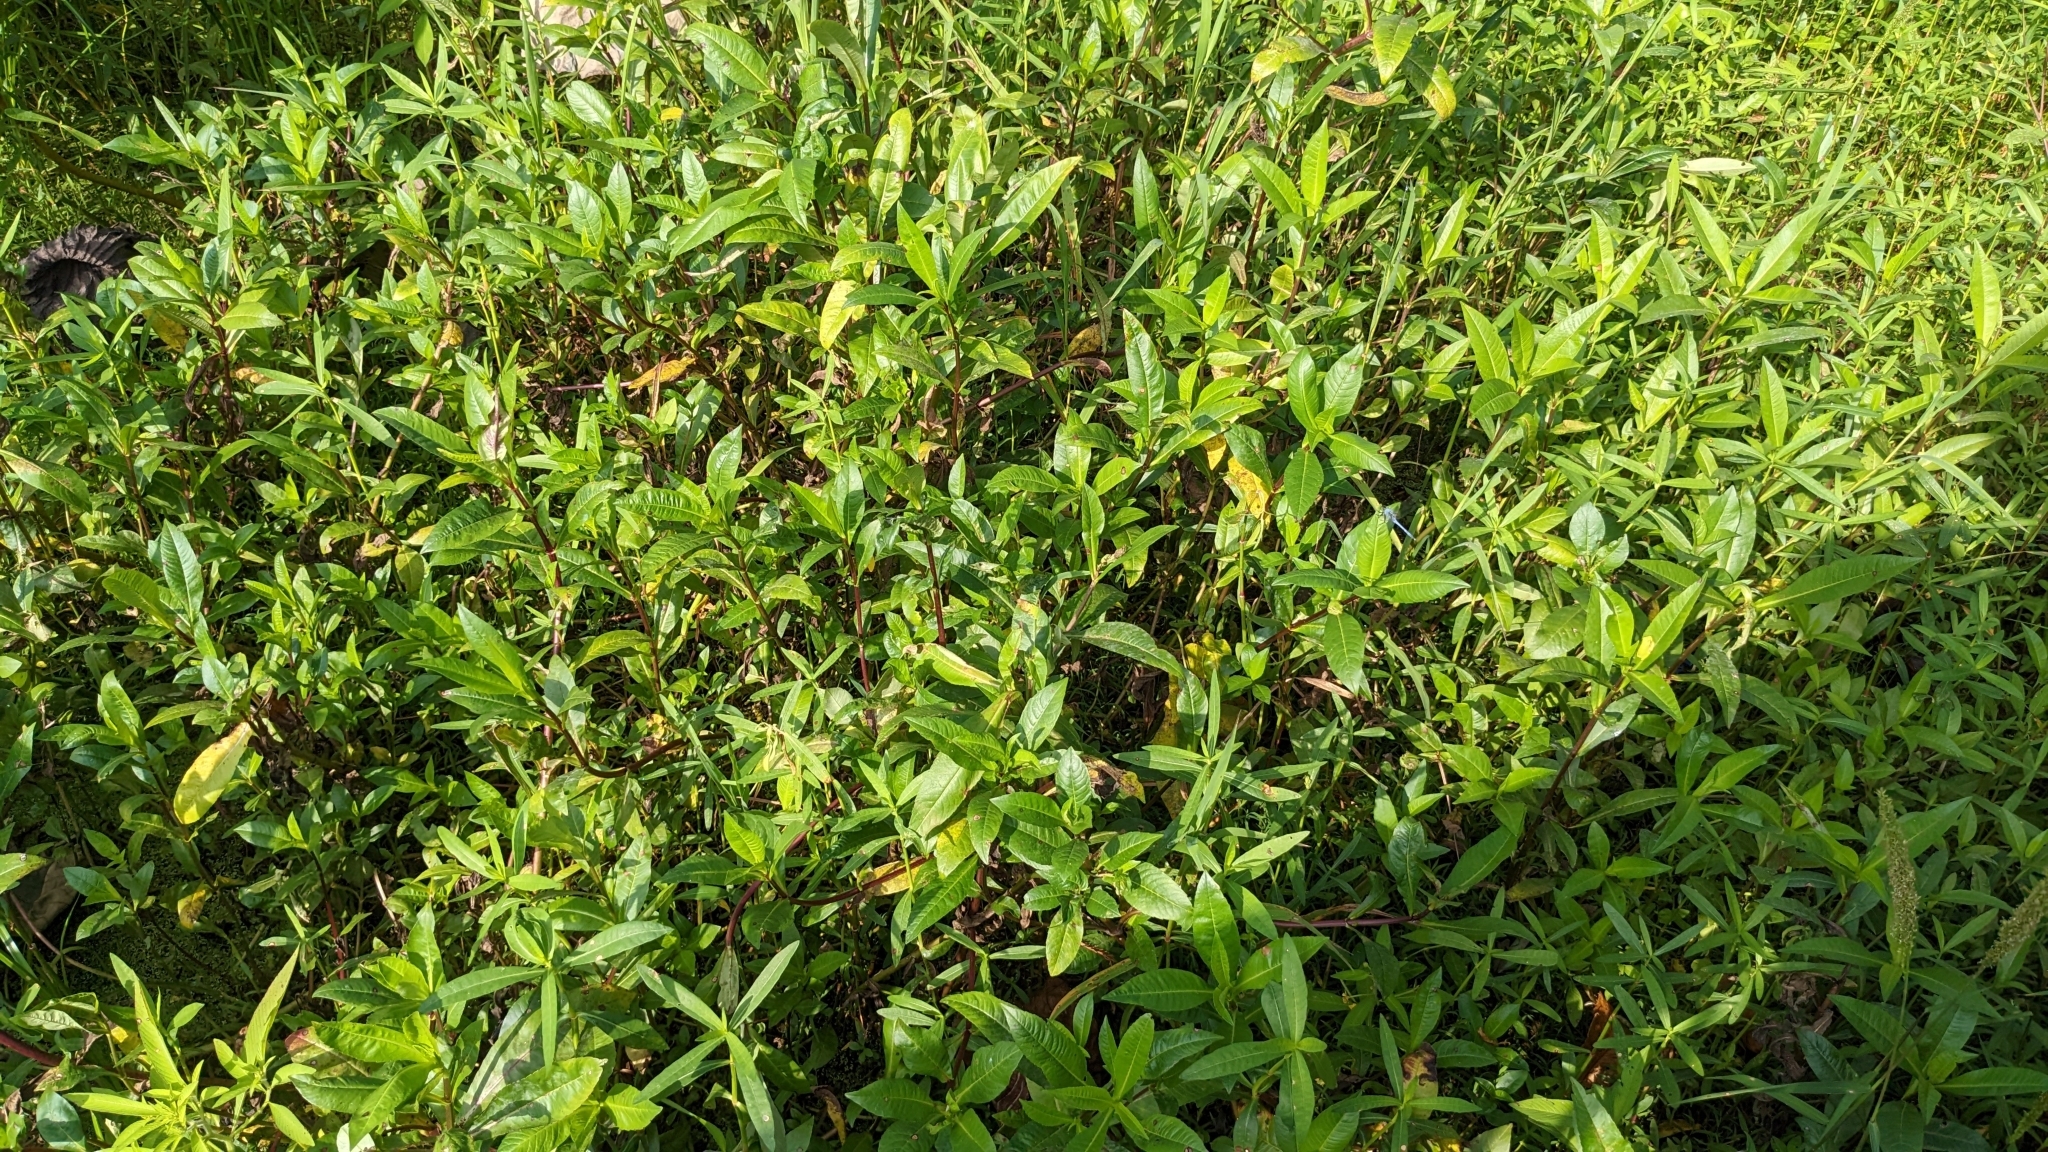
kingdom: Plantae
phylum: Tracheophyta
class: Magnoliopsida
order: Asterales
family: Asteraceae
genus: Bidens
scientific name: Bidens laevis
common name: Larger bur-marigold
